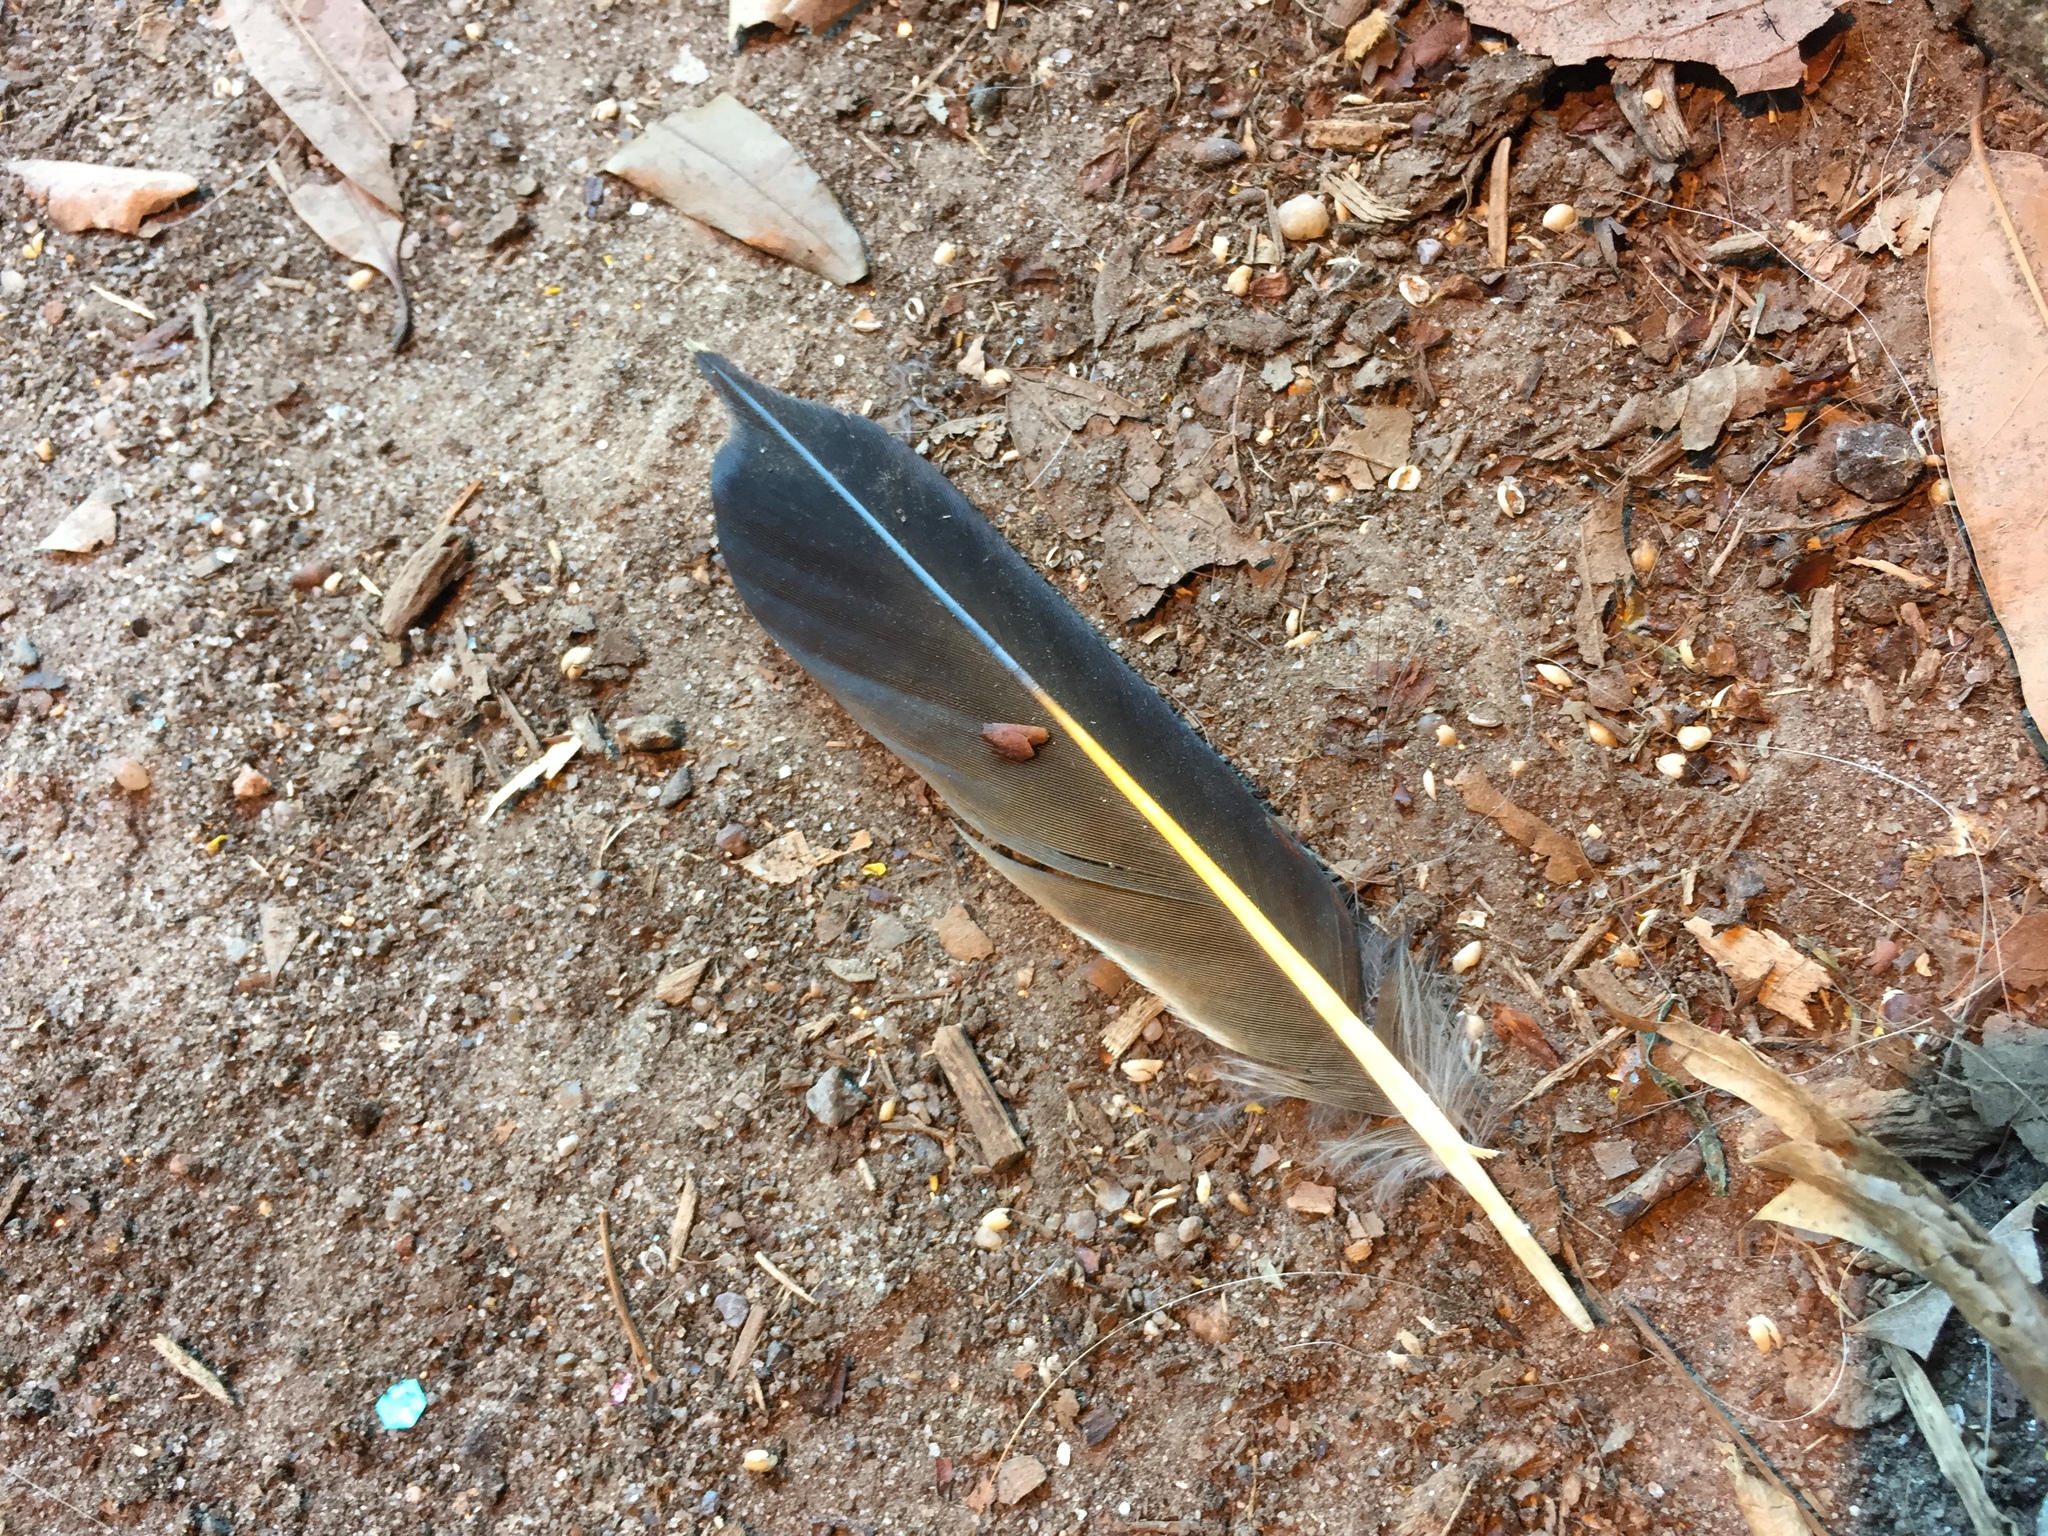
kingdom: Animalia
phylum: Chordata
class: Aves
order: Piciformes
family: Picidae
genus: Colaptes
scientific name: Colaptes auratus
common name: Northern flicker
